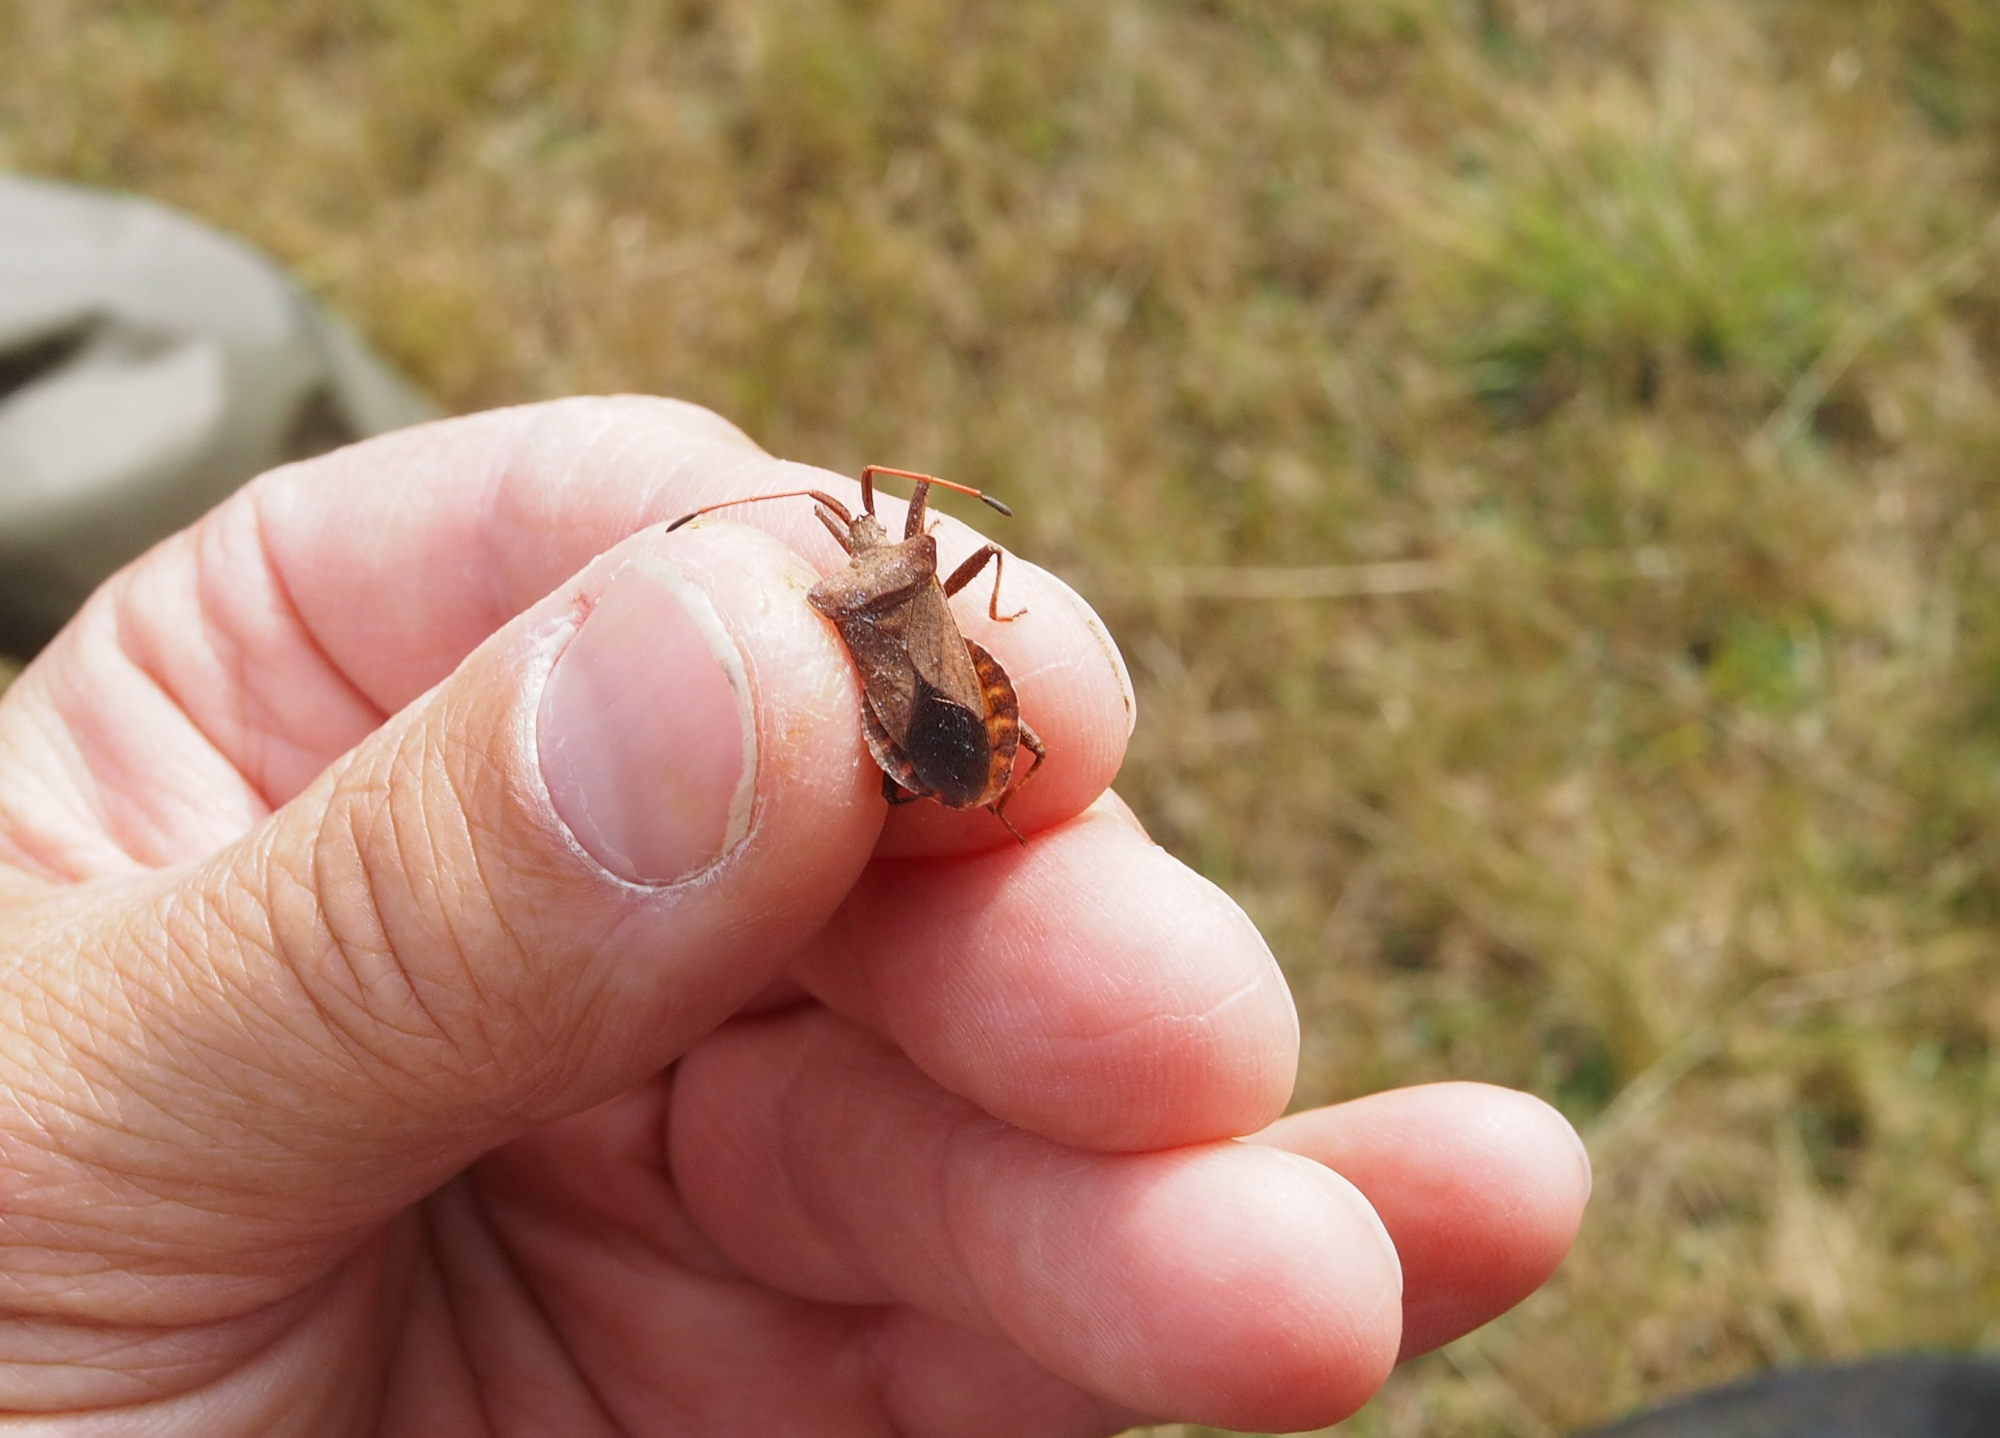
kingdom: Animalia
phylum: Arthropoda
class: Insecta
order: Hemiptera
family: Coreidae
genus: Coreus
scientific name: Coreus marginatus
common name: Dock bug
